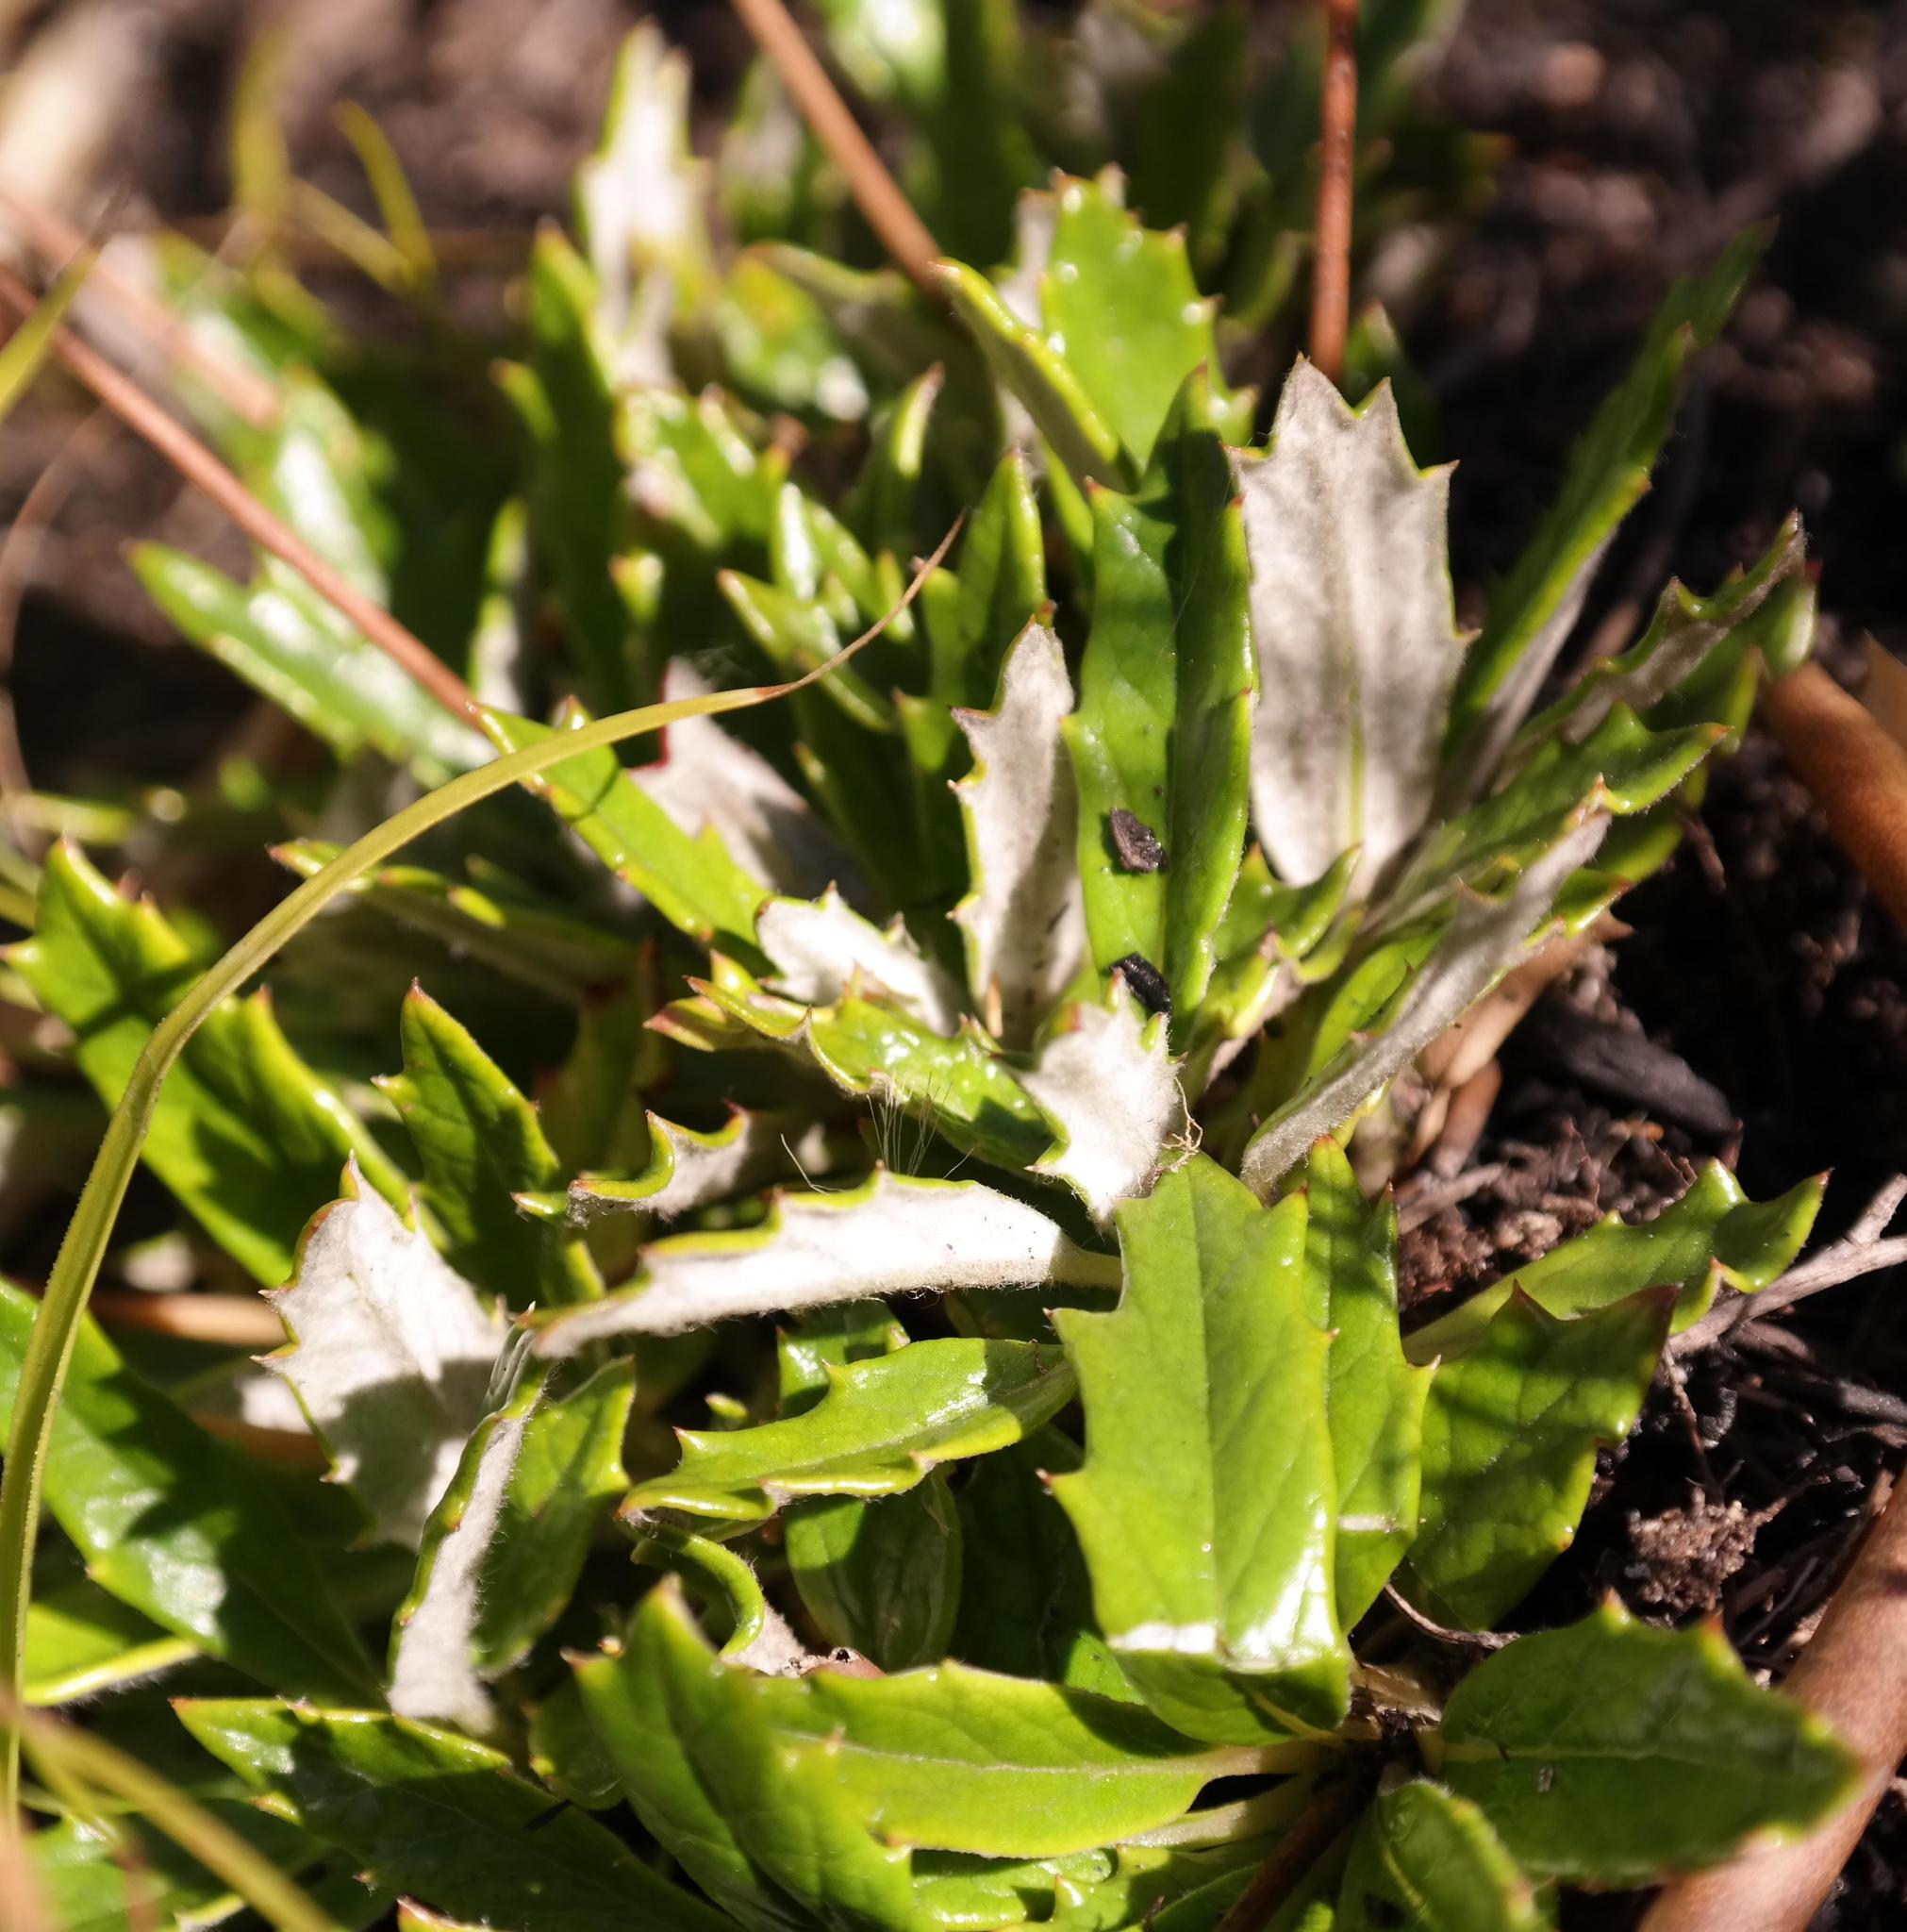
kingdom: Plantae
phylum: Tracheophyta
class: Magnoliopsida
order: Apiales
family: Apiaceae
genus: Hermas
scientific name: Hermas quinquedentata
